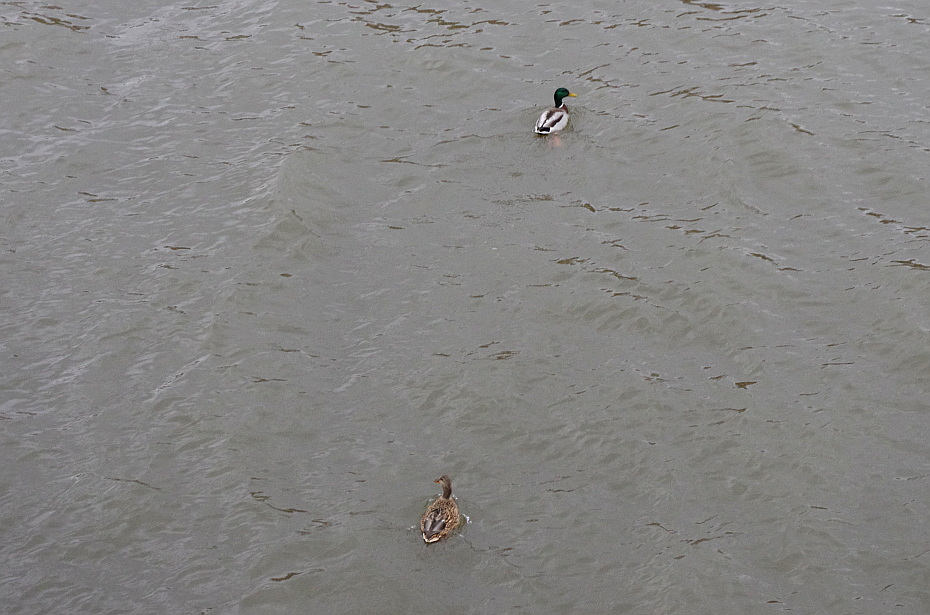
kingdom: Animalia
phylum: Chordata
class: Aves
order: Anseriformes
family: Anatidae
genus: Anas
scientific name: Anas platyrhynchos
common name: Mallard
